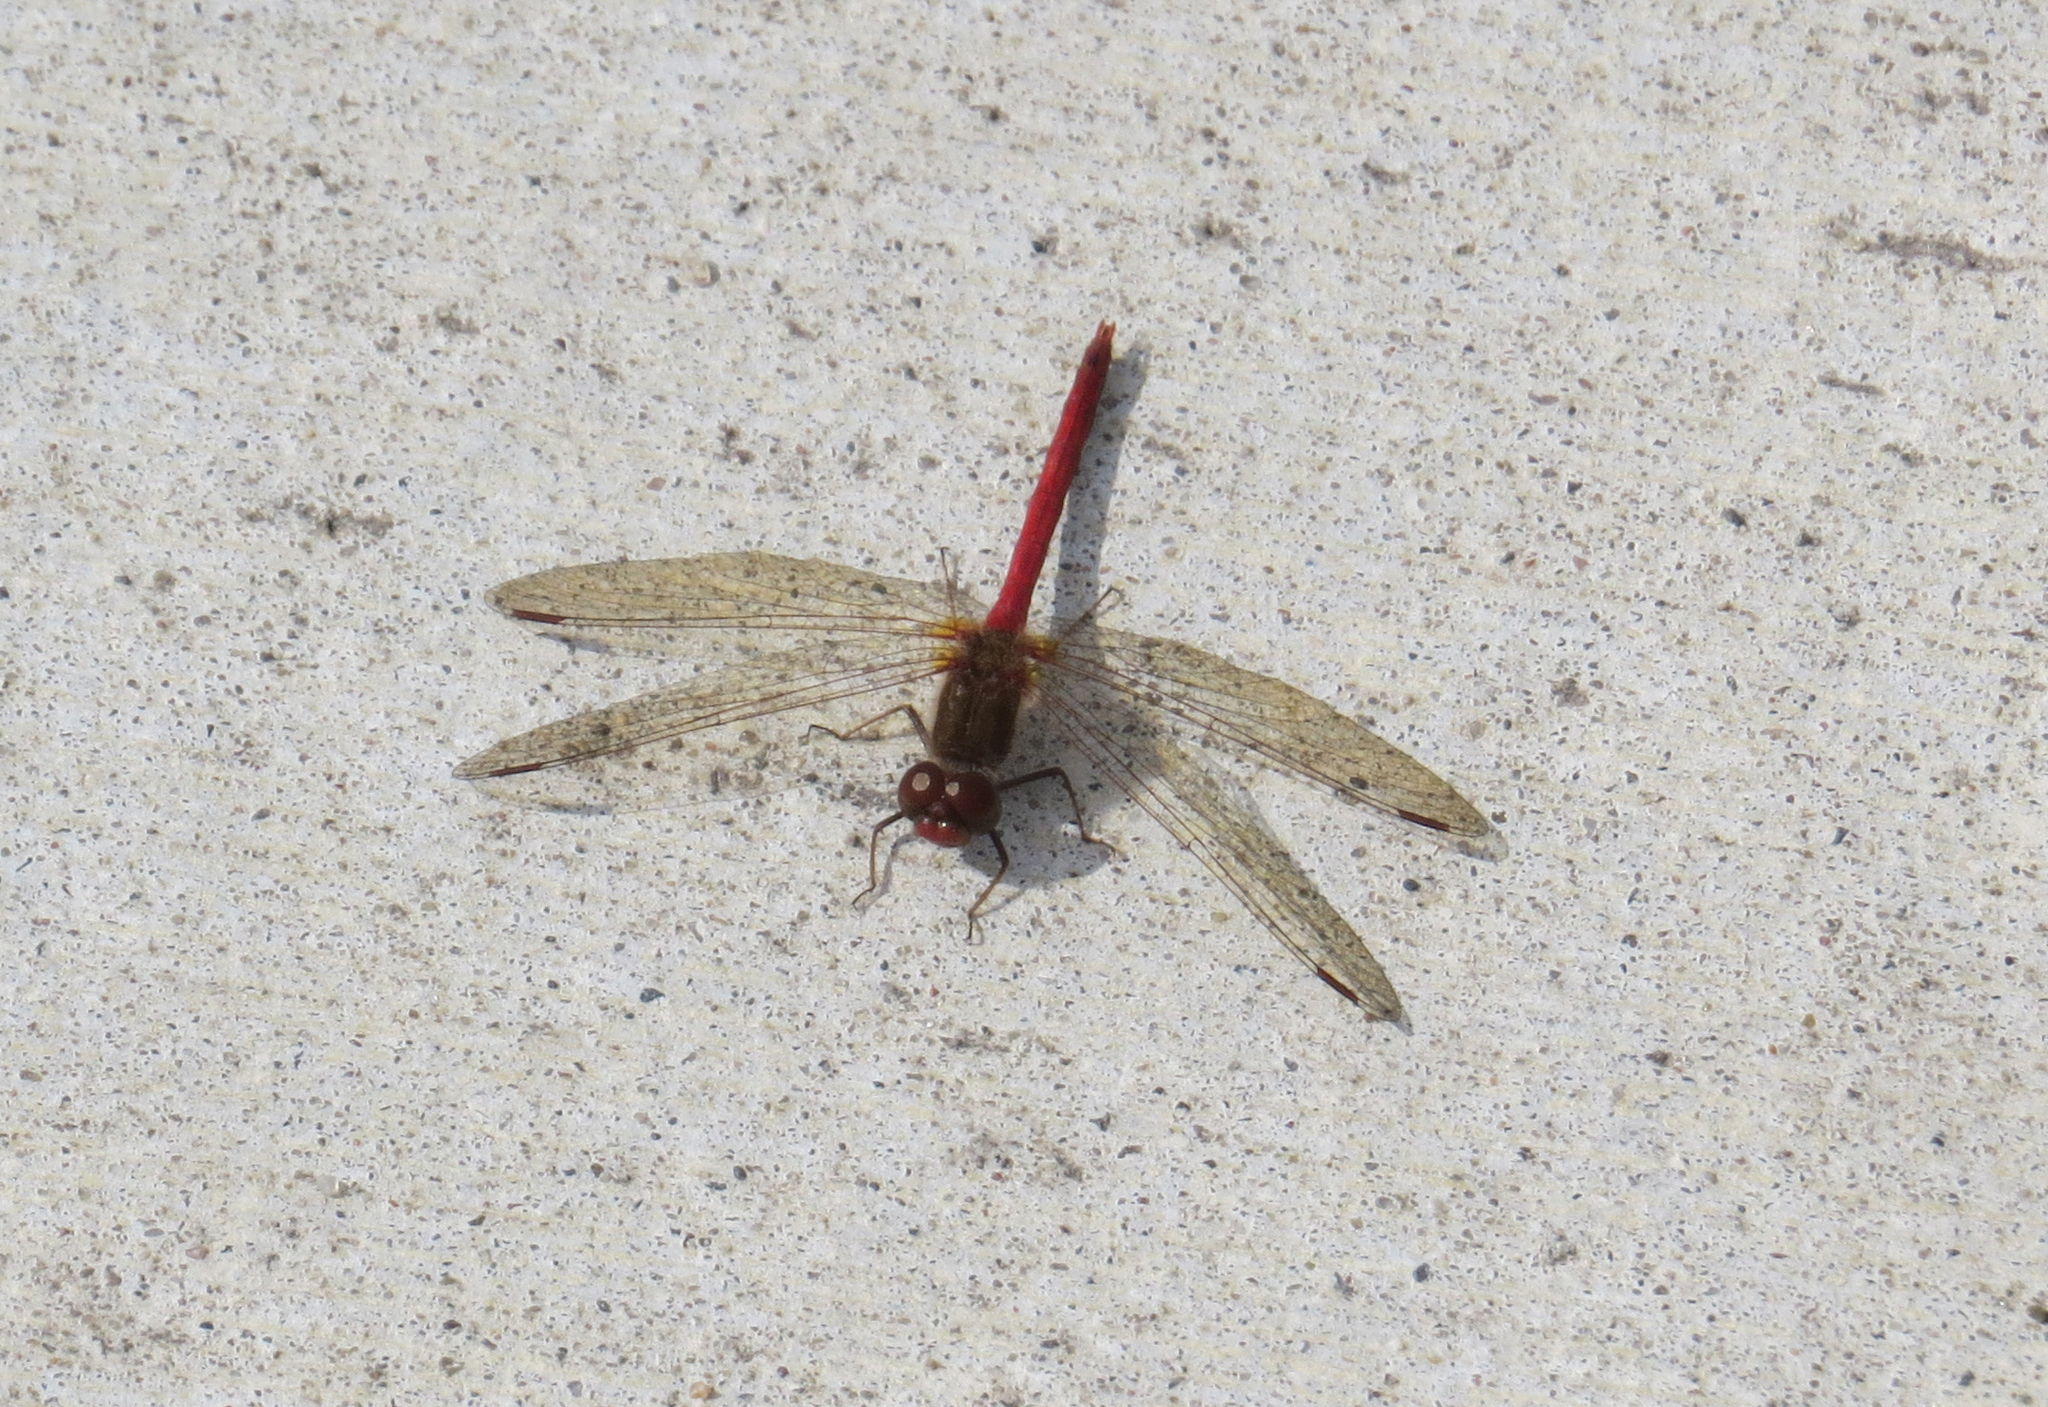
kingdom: Animalia
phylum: Arthropoda
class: Insecta
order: Odonata
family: Libellulidae
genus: Sympetrum
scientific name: Sympetrum vicinum
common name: Autumn meadowhawk
